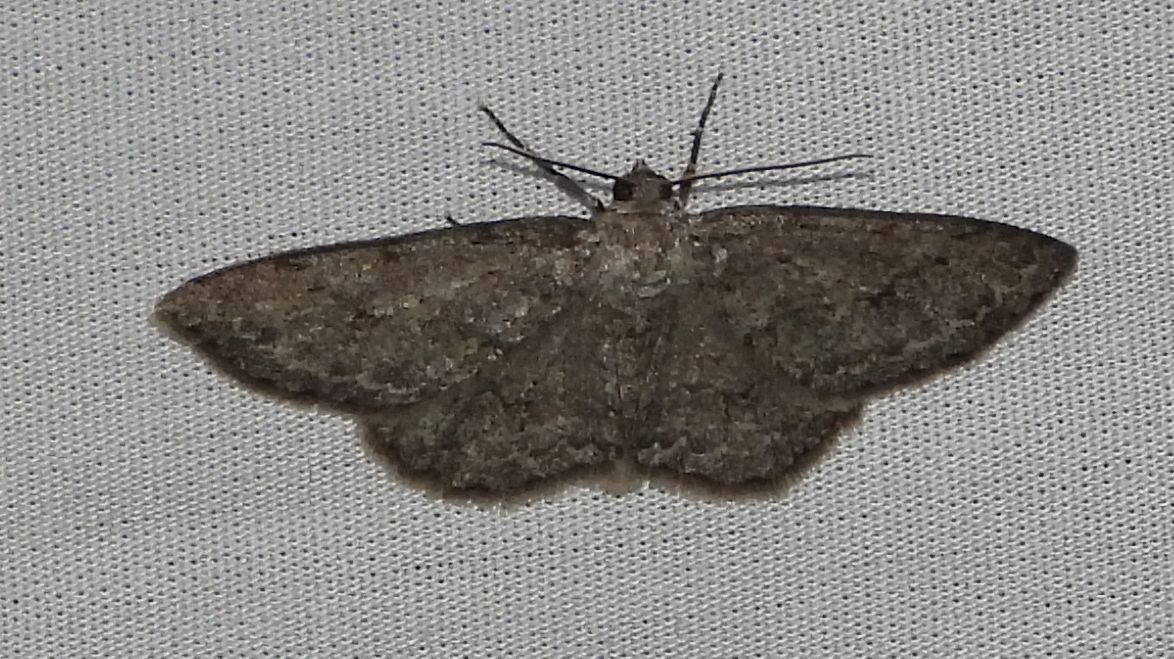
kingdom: Animalia
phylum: Arthropoda
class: Insecta
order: Lepidoptera
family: Geometridae
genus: Ectropis
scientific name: Ectropis crepuscularia
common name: Engrailed
